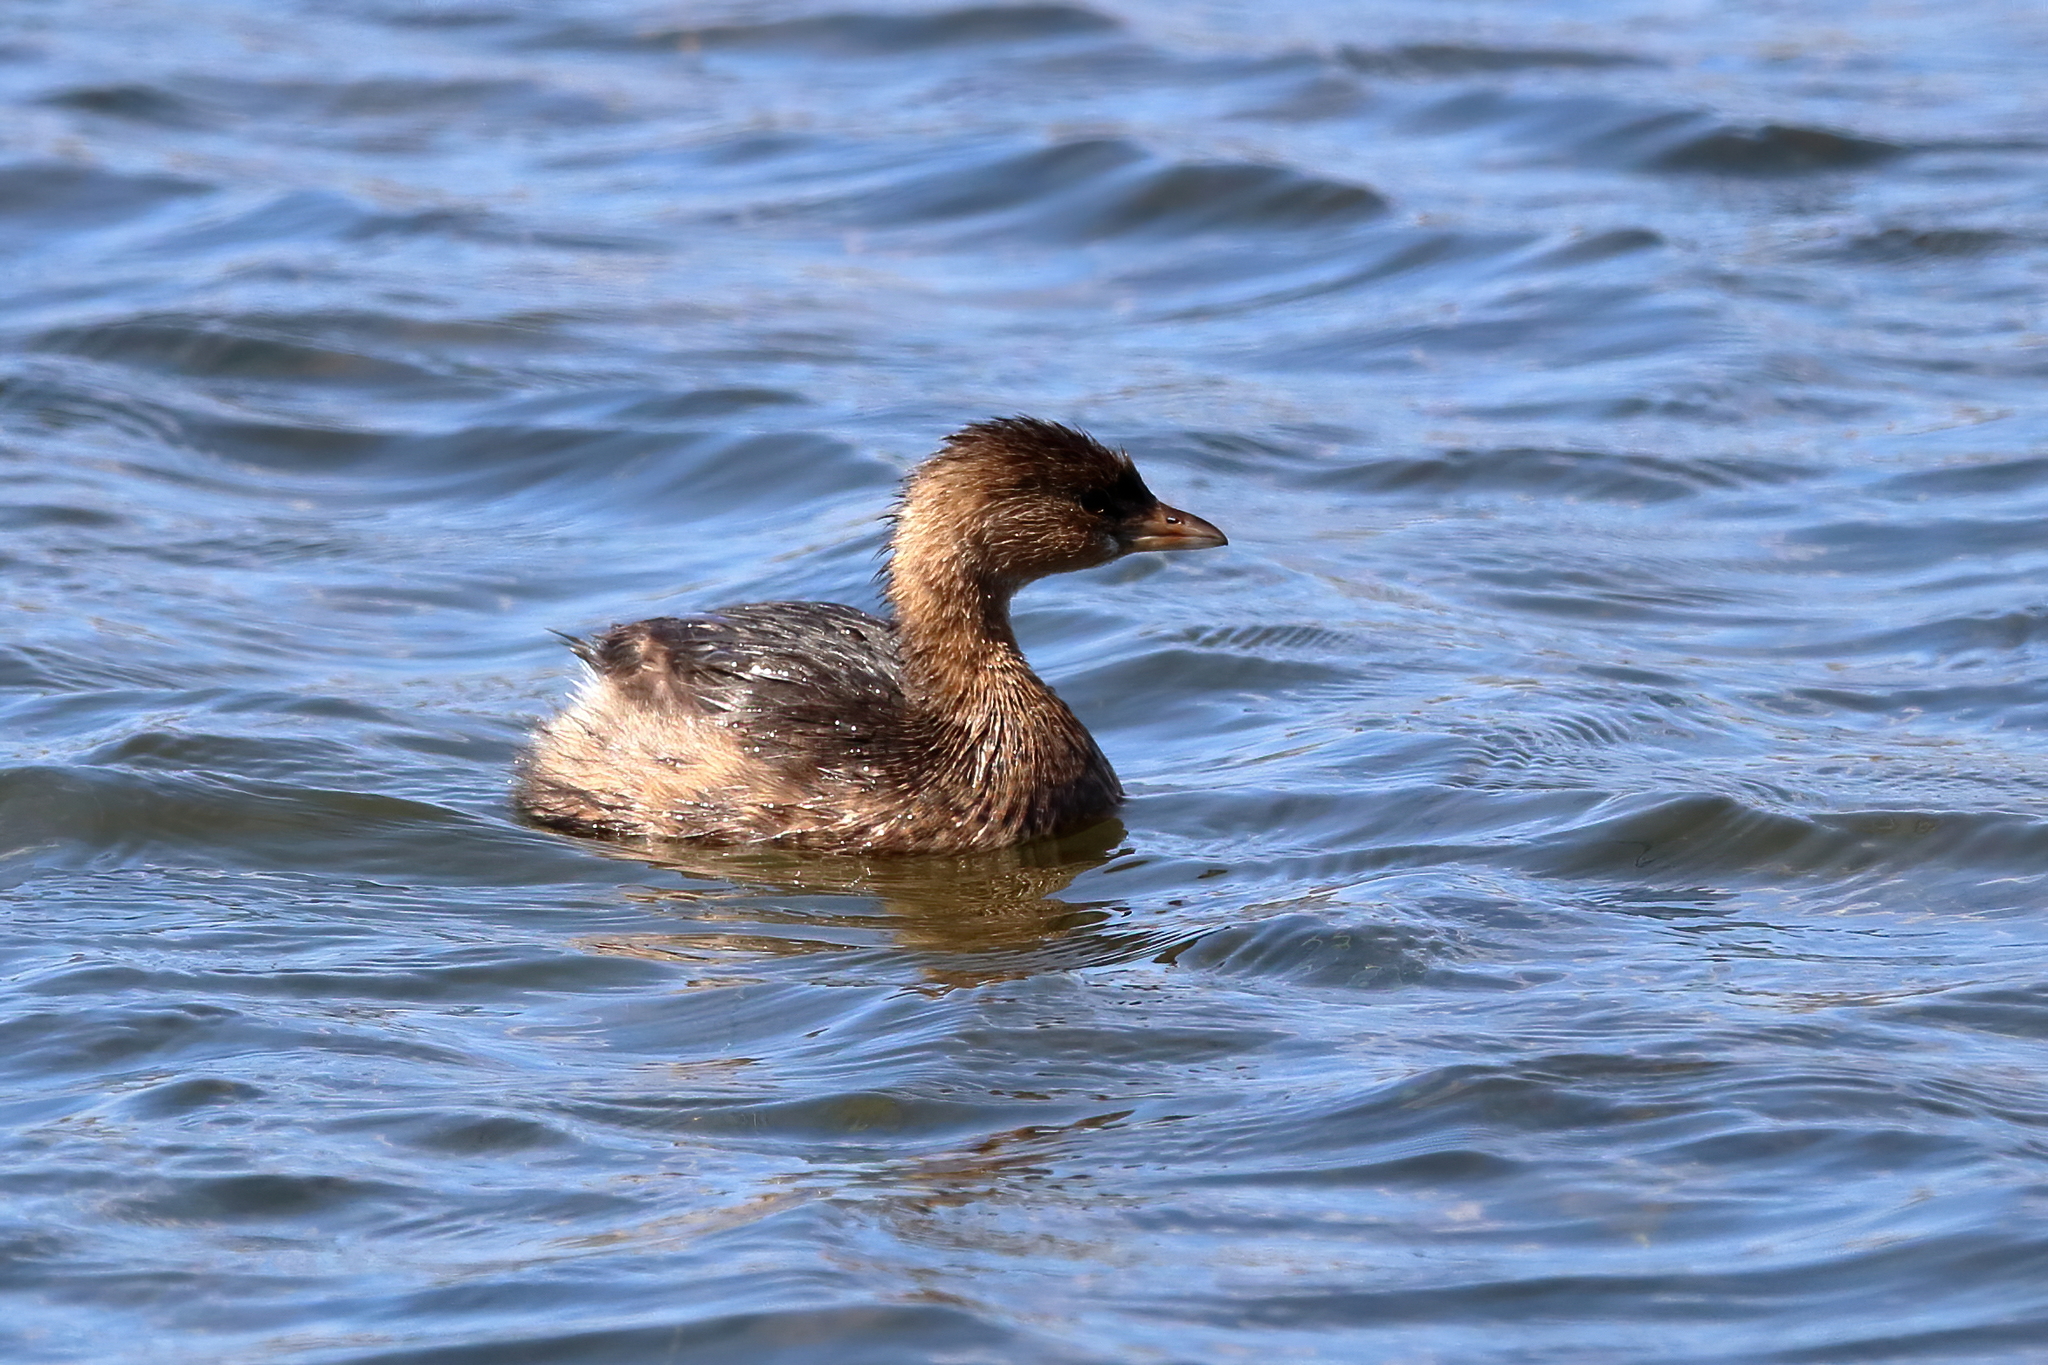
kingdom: Animalia
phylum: Chordata
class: Aves
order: Podicipediformes
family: Podicipedidae
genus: Podilymbus
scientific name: Podilymbus podiceps
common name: Pied-billed grebe
